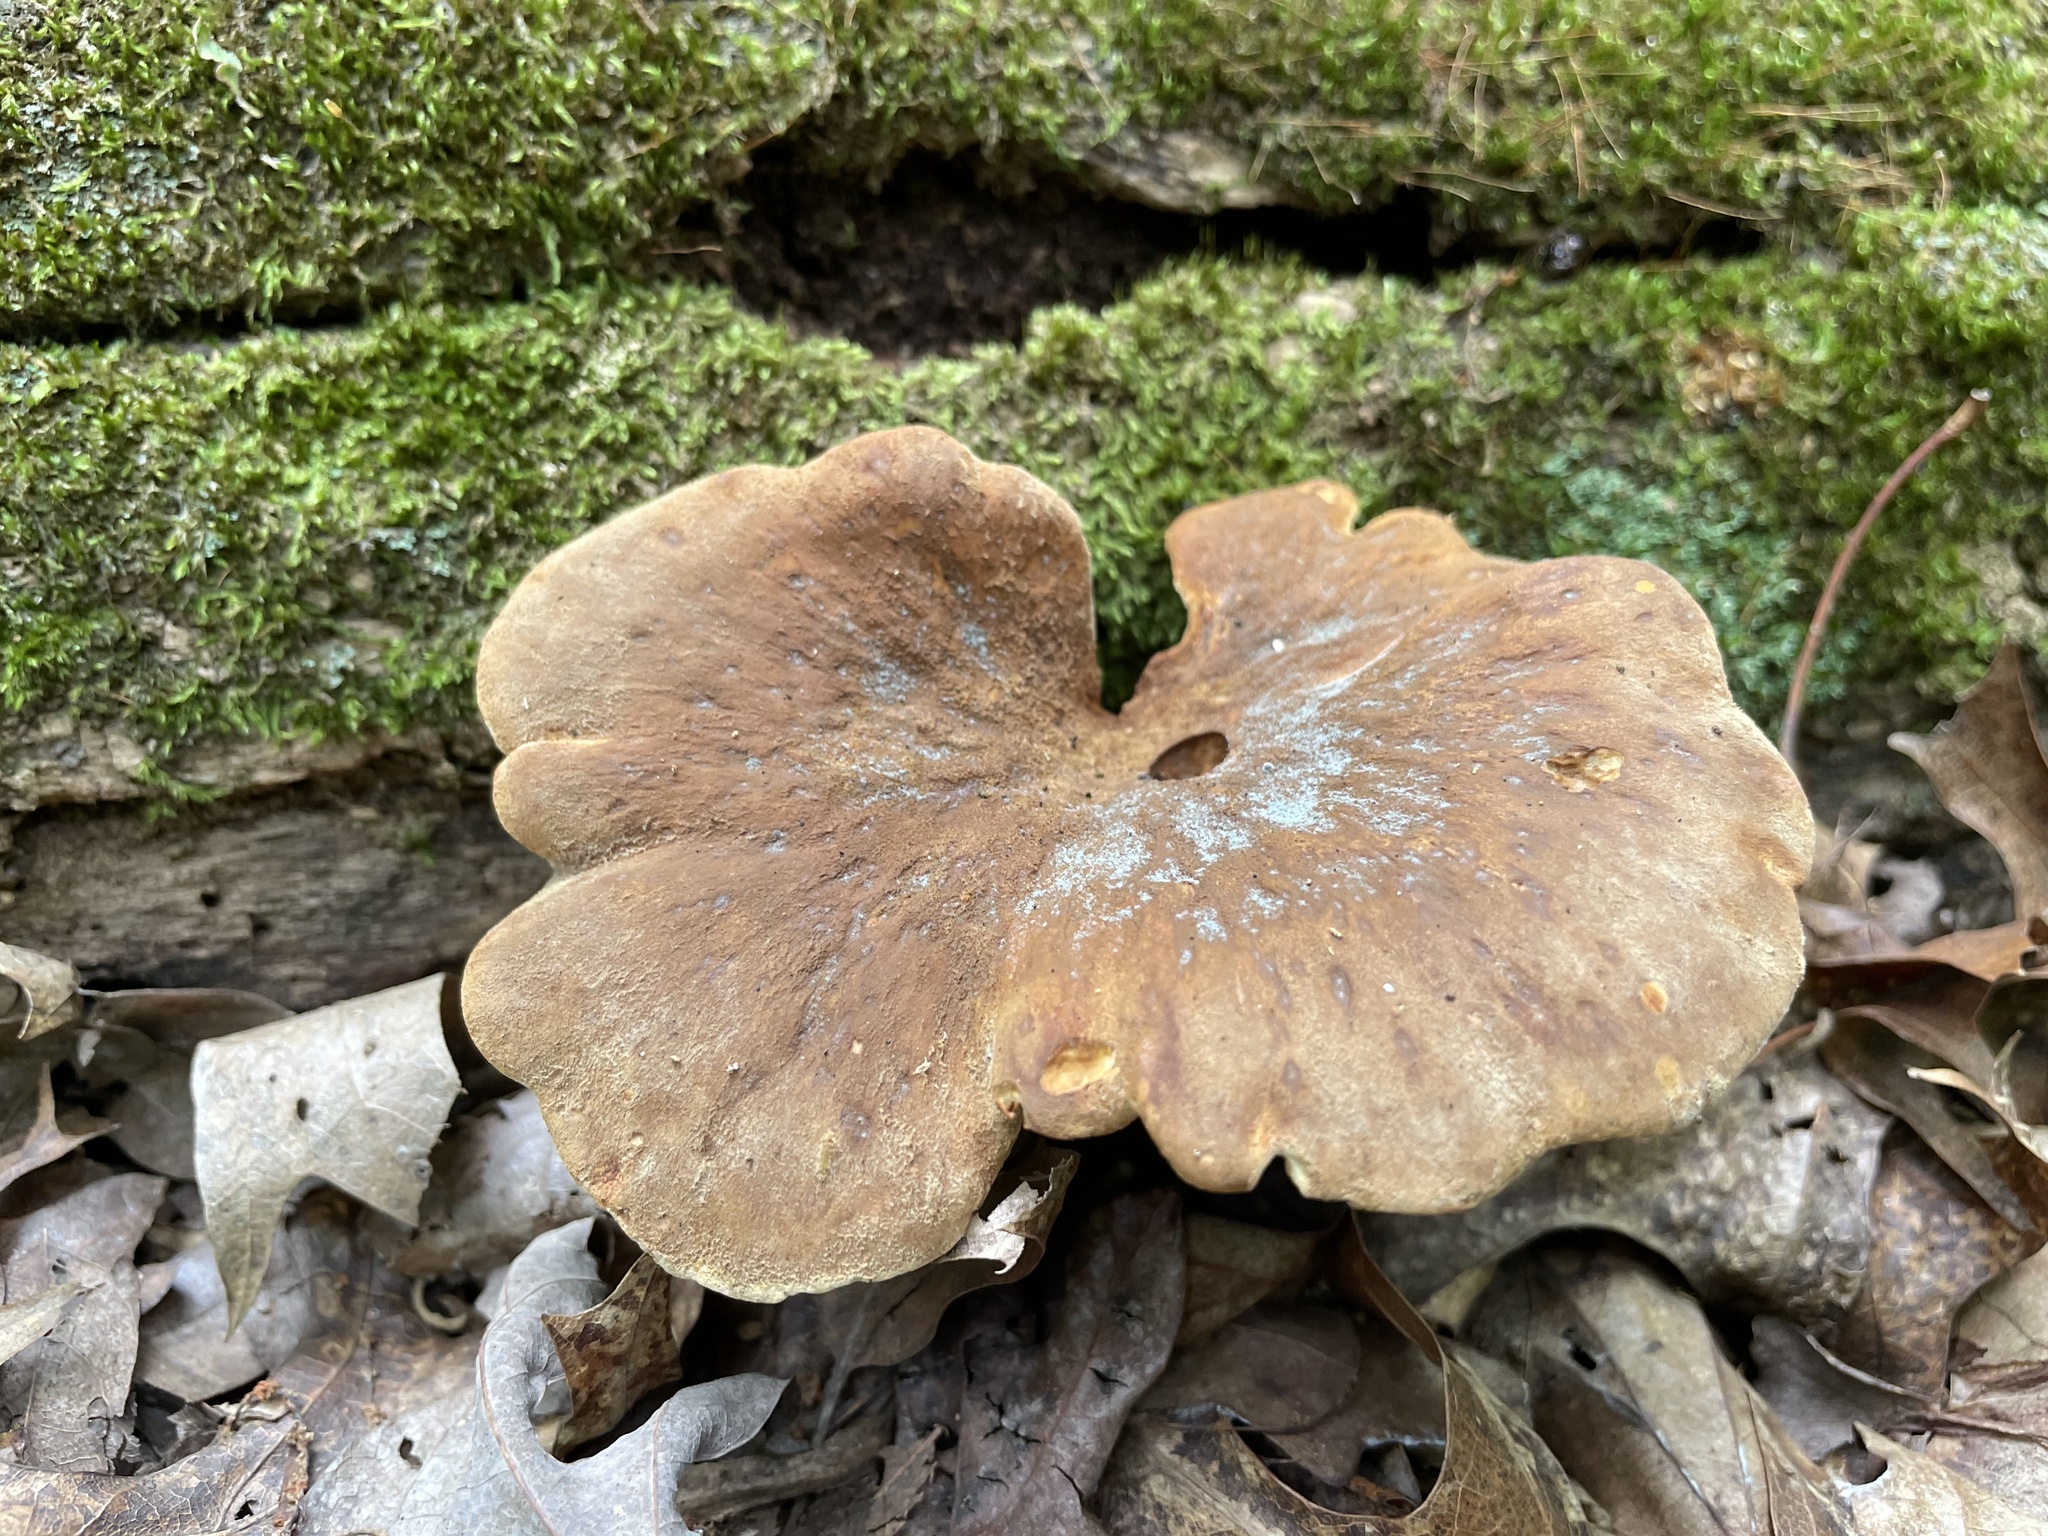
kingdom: Fungi
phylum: Basidiomycota
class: Agaricomycetes
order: Boletales
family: Tapinellaceae
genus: Tapinella
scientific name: Tapinella atrotomentosa
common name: Velvet rollrim
